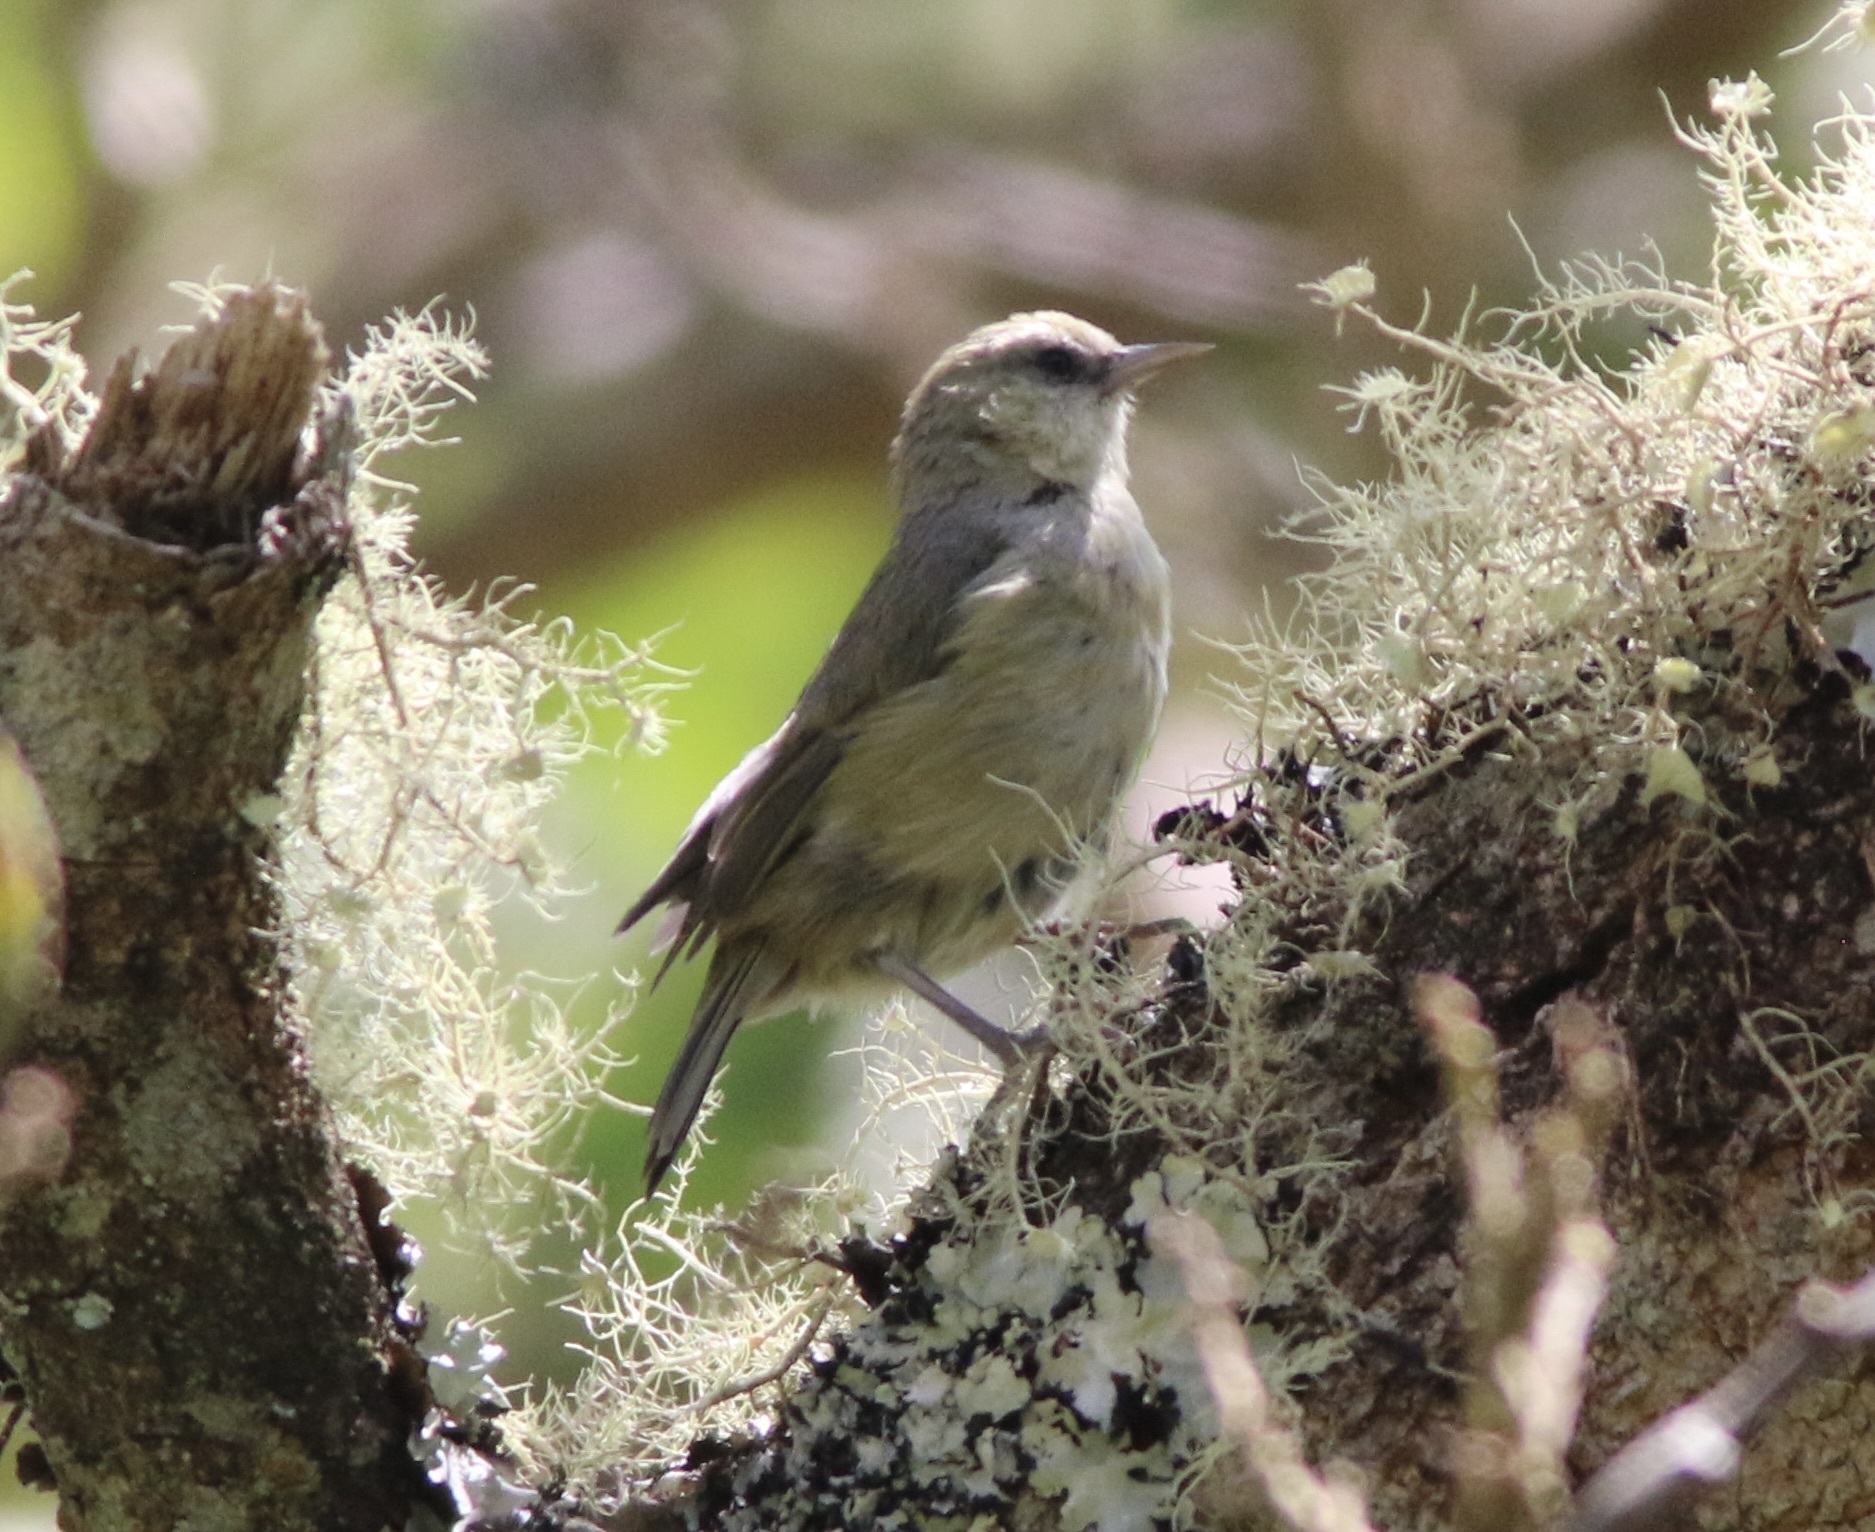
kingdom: Animalia
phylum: Chordata
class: Aves
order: Passeriformes
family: Fringillidae
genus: Loxops
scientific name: Loxops mana
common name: Hawaii creeper
